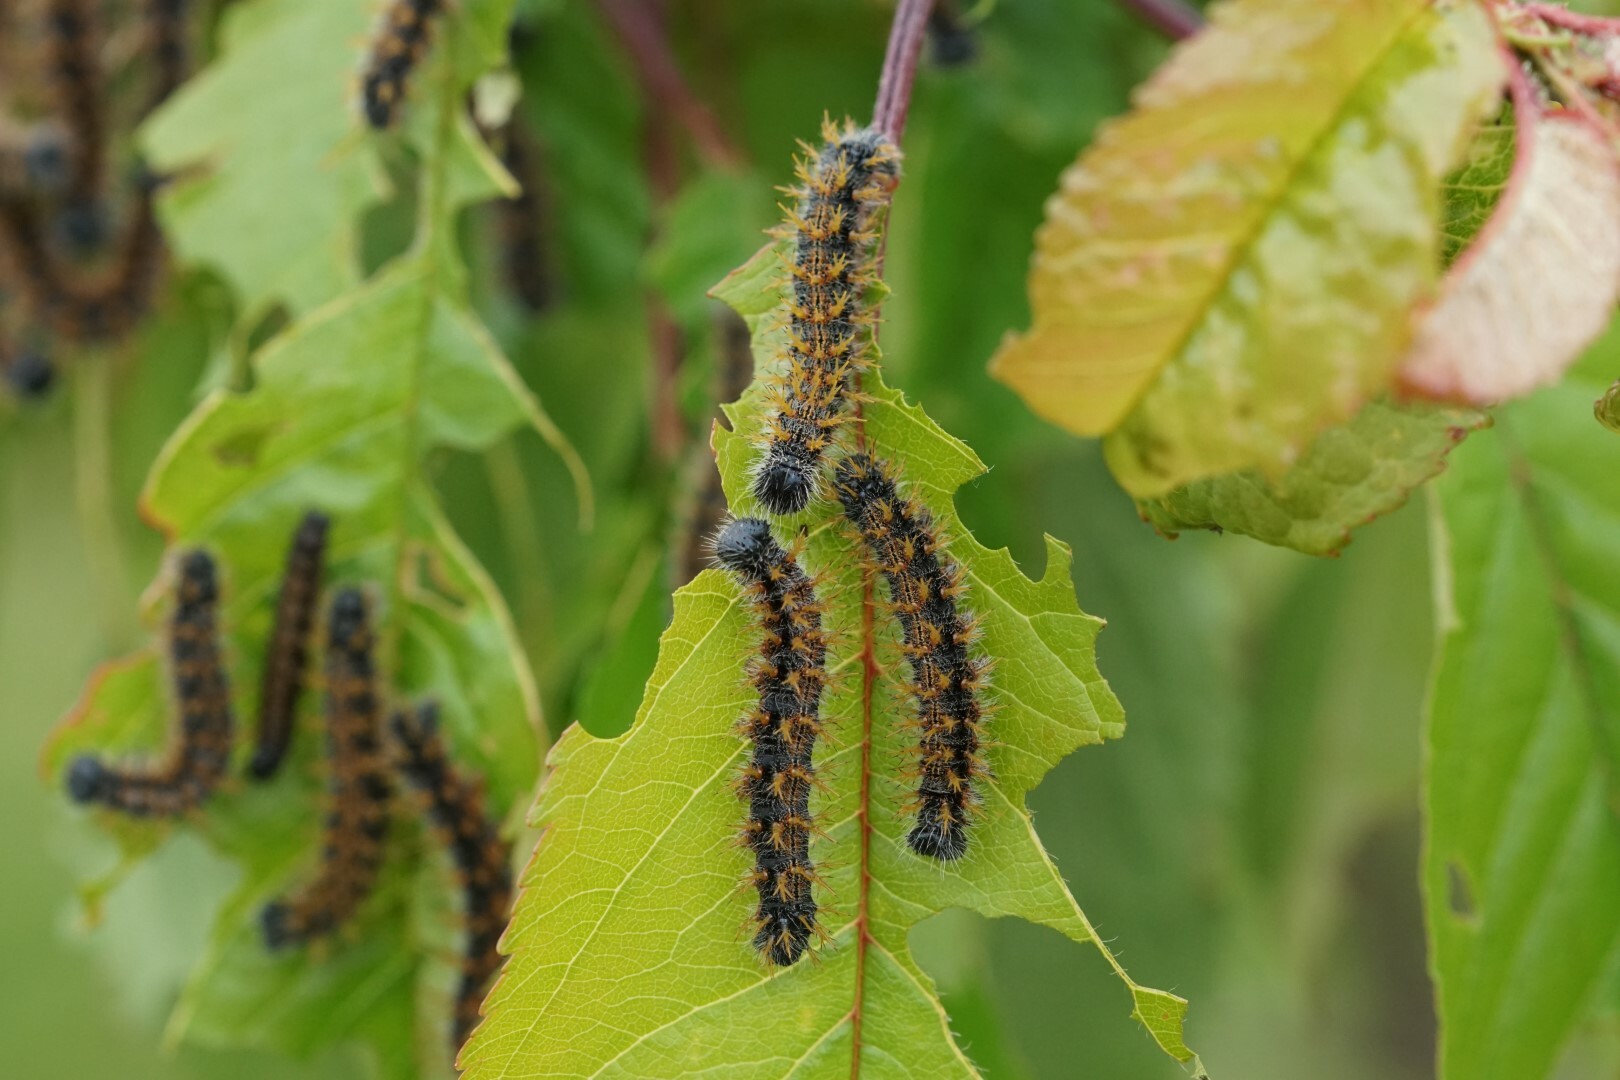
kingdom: Animalia
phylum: Arthropoda
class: Insecta
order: Lepidoptera
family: Nymphalidae
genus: Nymphalis
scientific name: Nymphalis polychloros
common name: Large tortoiseshell
